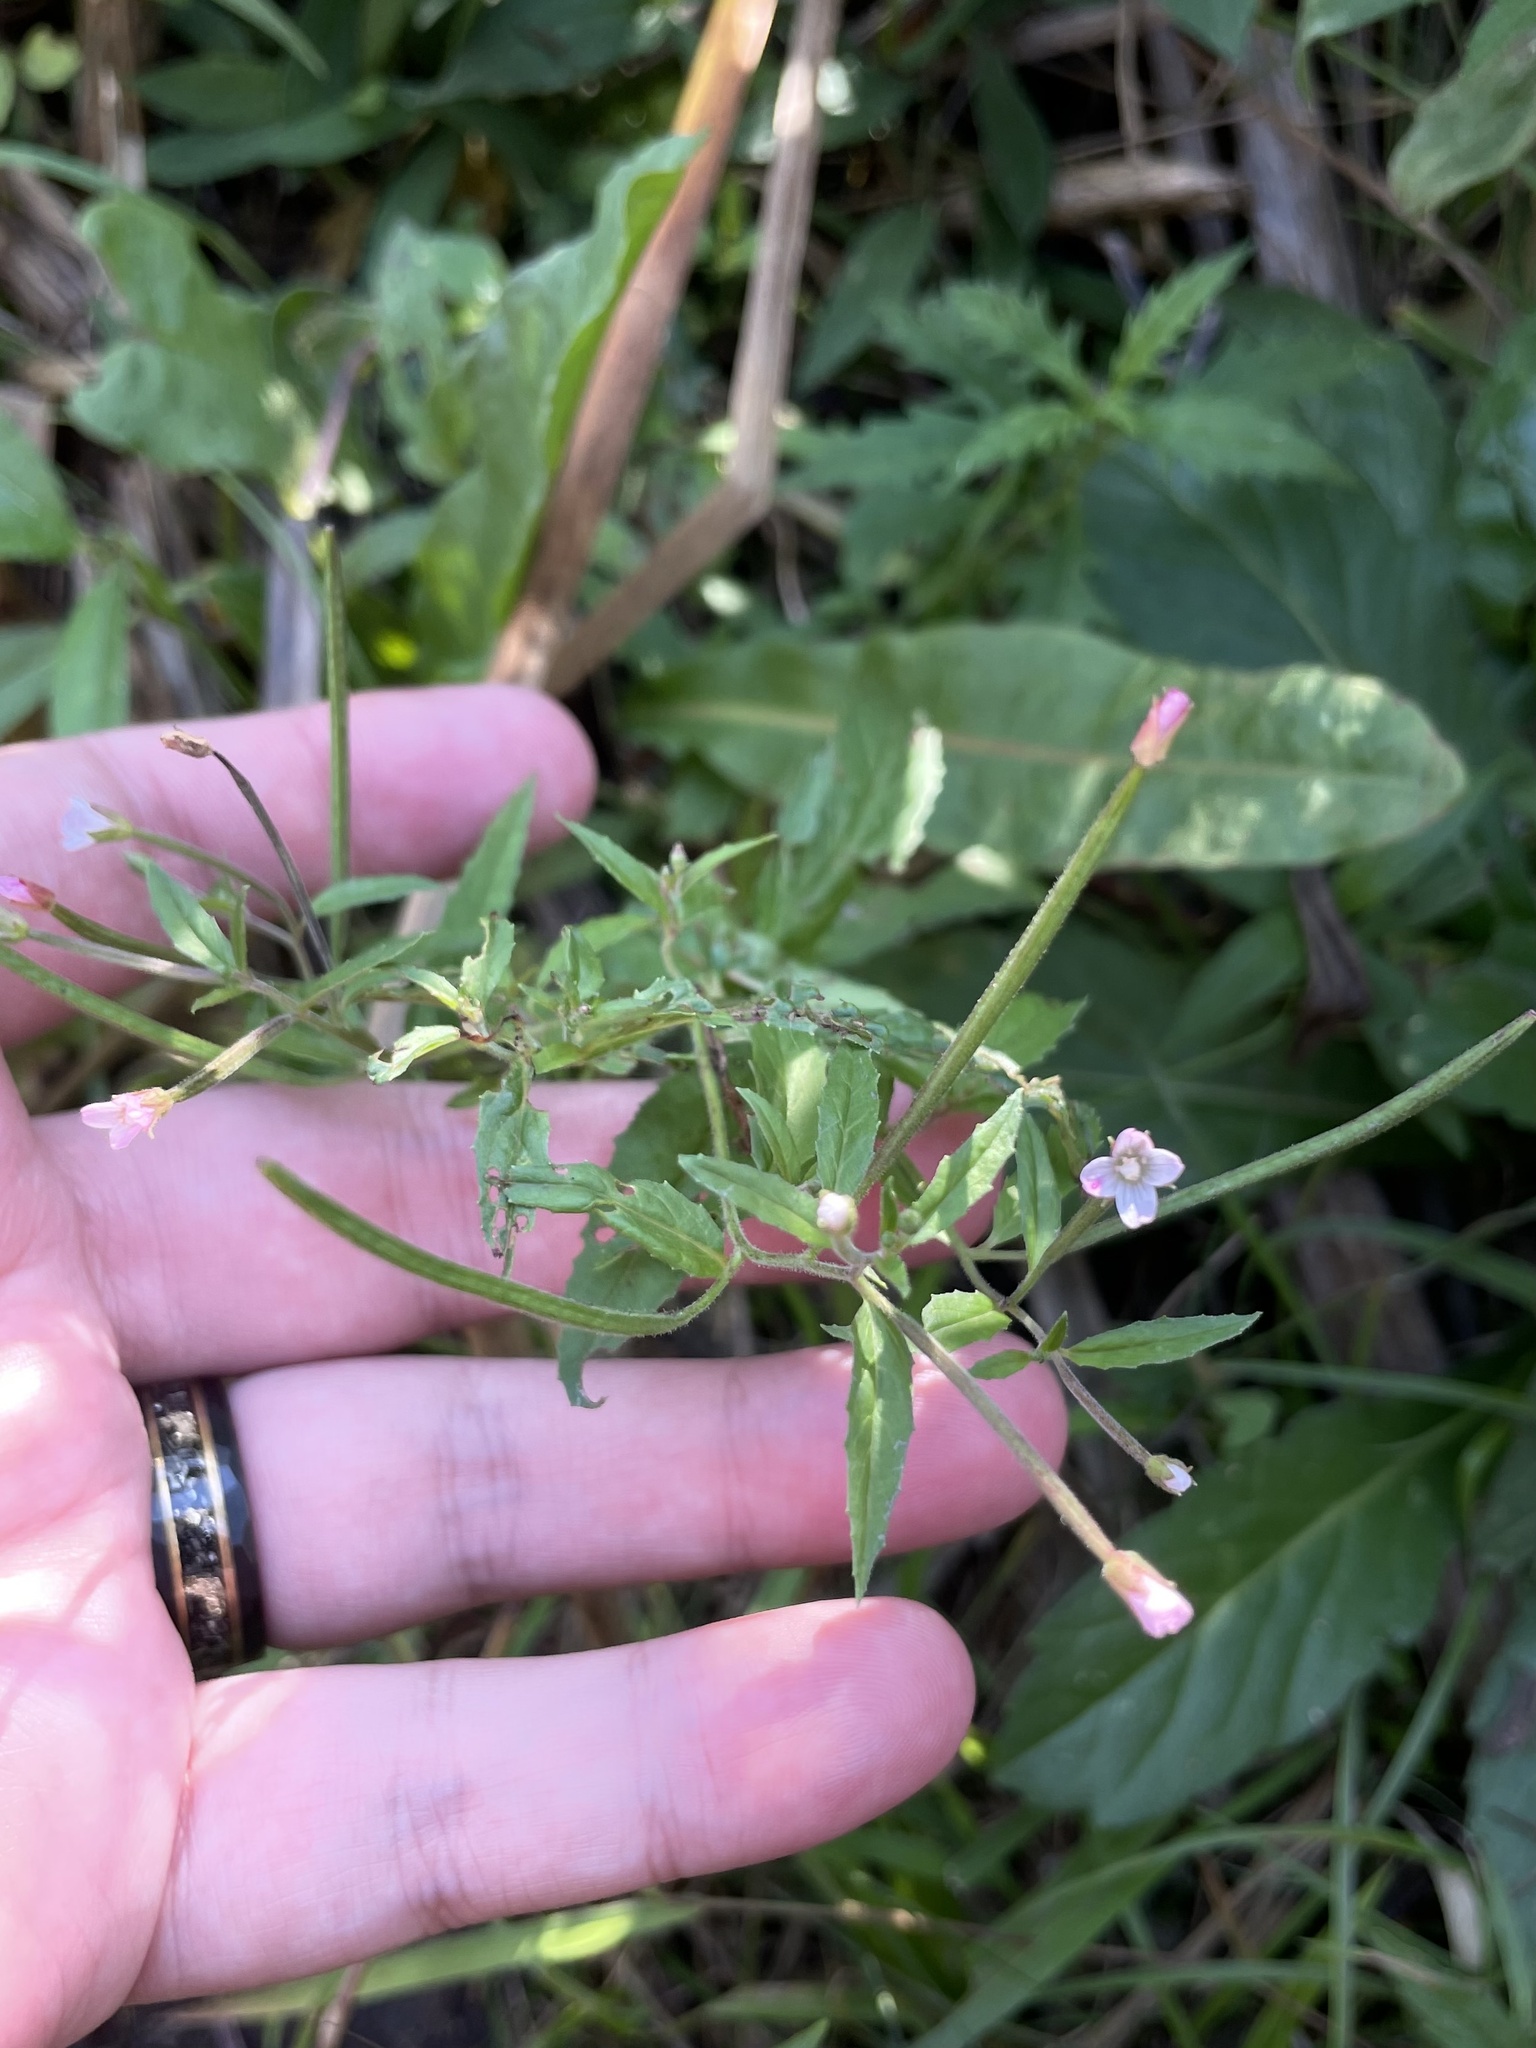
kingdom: Plantae
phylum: Tracheophyta
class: Magnoliopsida
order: Myrtales
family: Onagraceae
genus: Epilobium
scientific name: Epilobium coloratum
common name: Bronze willowherb
